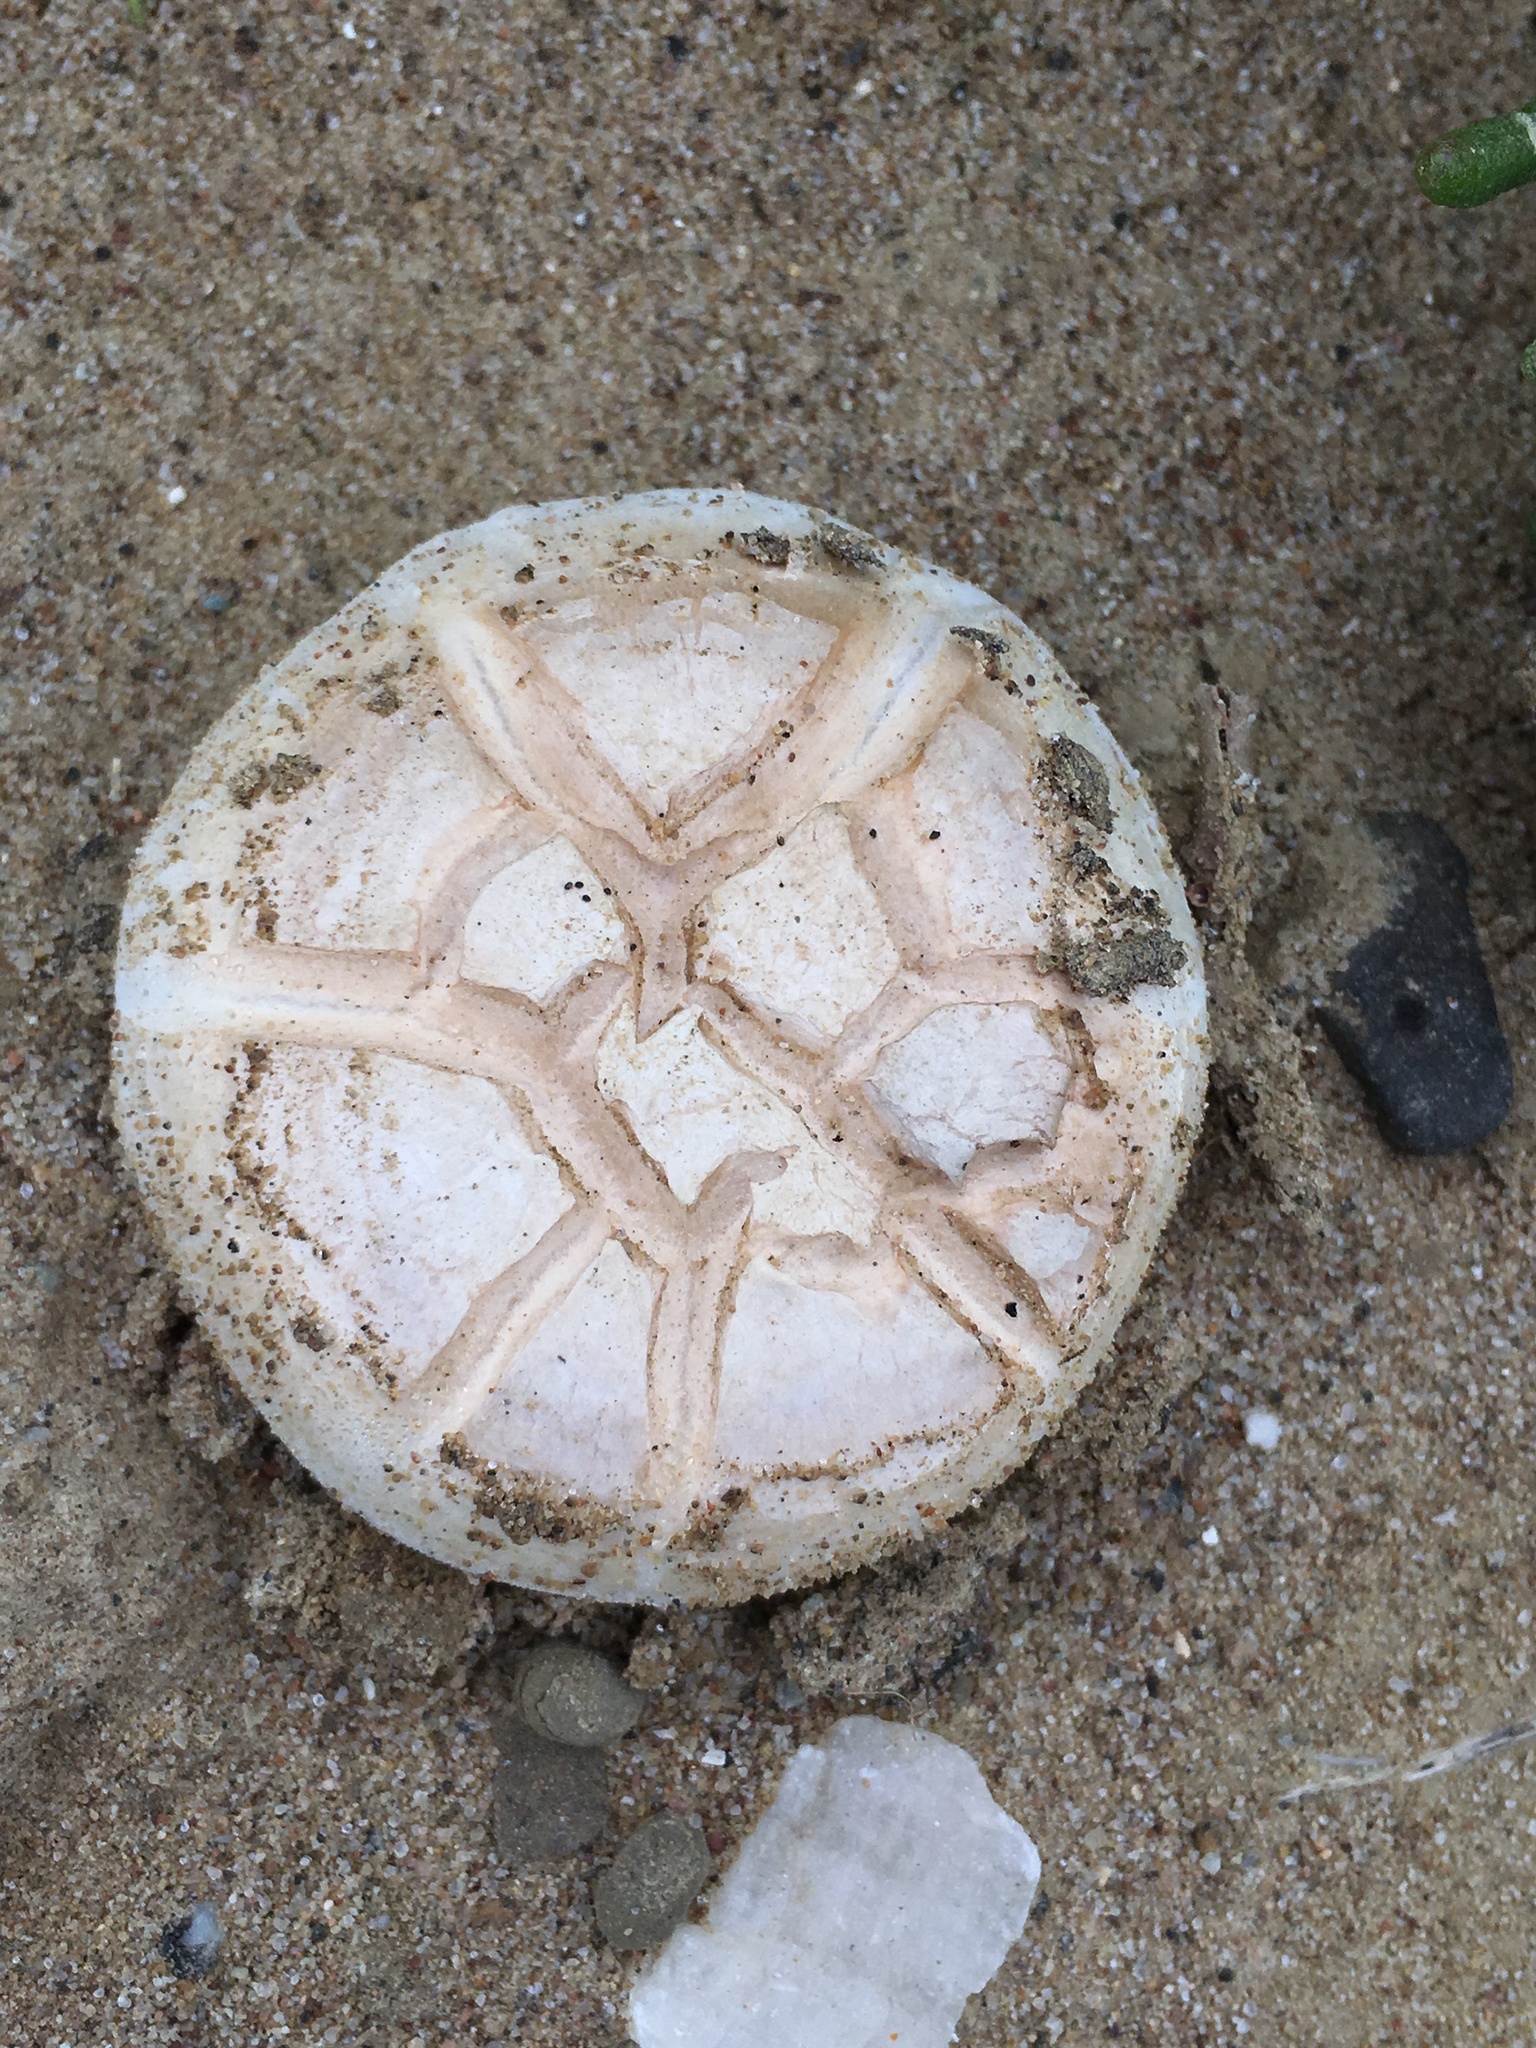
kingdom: Fungi
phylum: Basidiomycota
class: Agaricomycetes
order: Agaricales
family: Agaricaceae
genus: Agaricus
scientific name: Agaricus bitorquis
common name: Pavement mushroom
